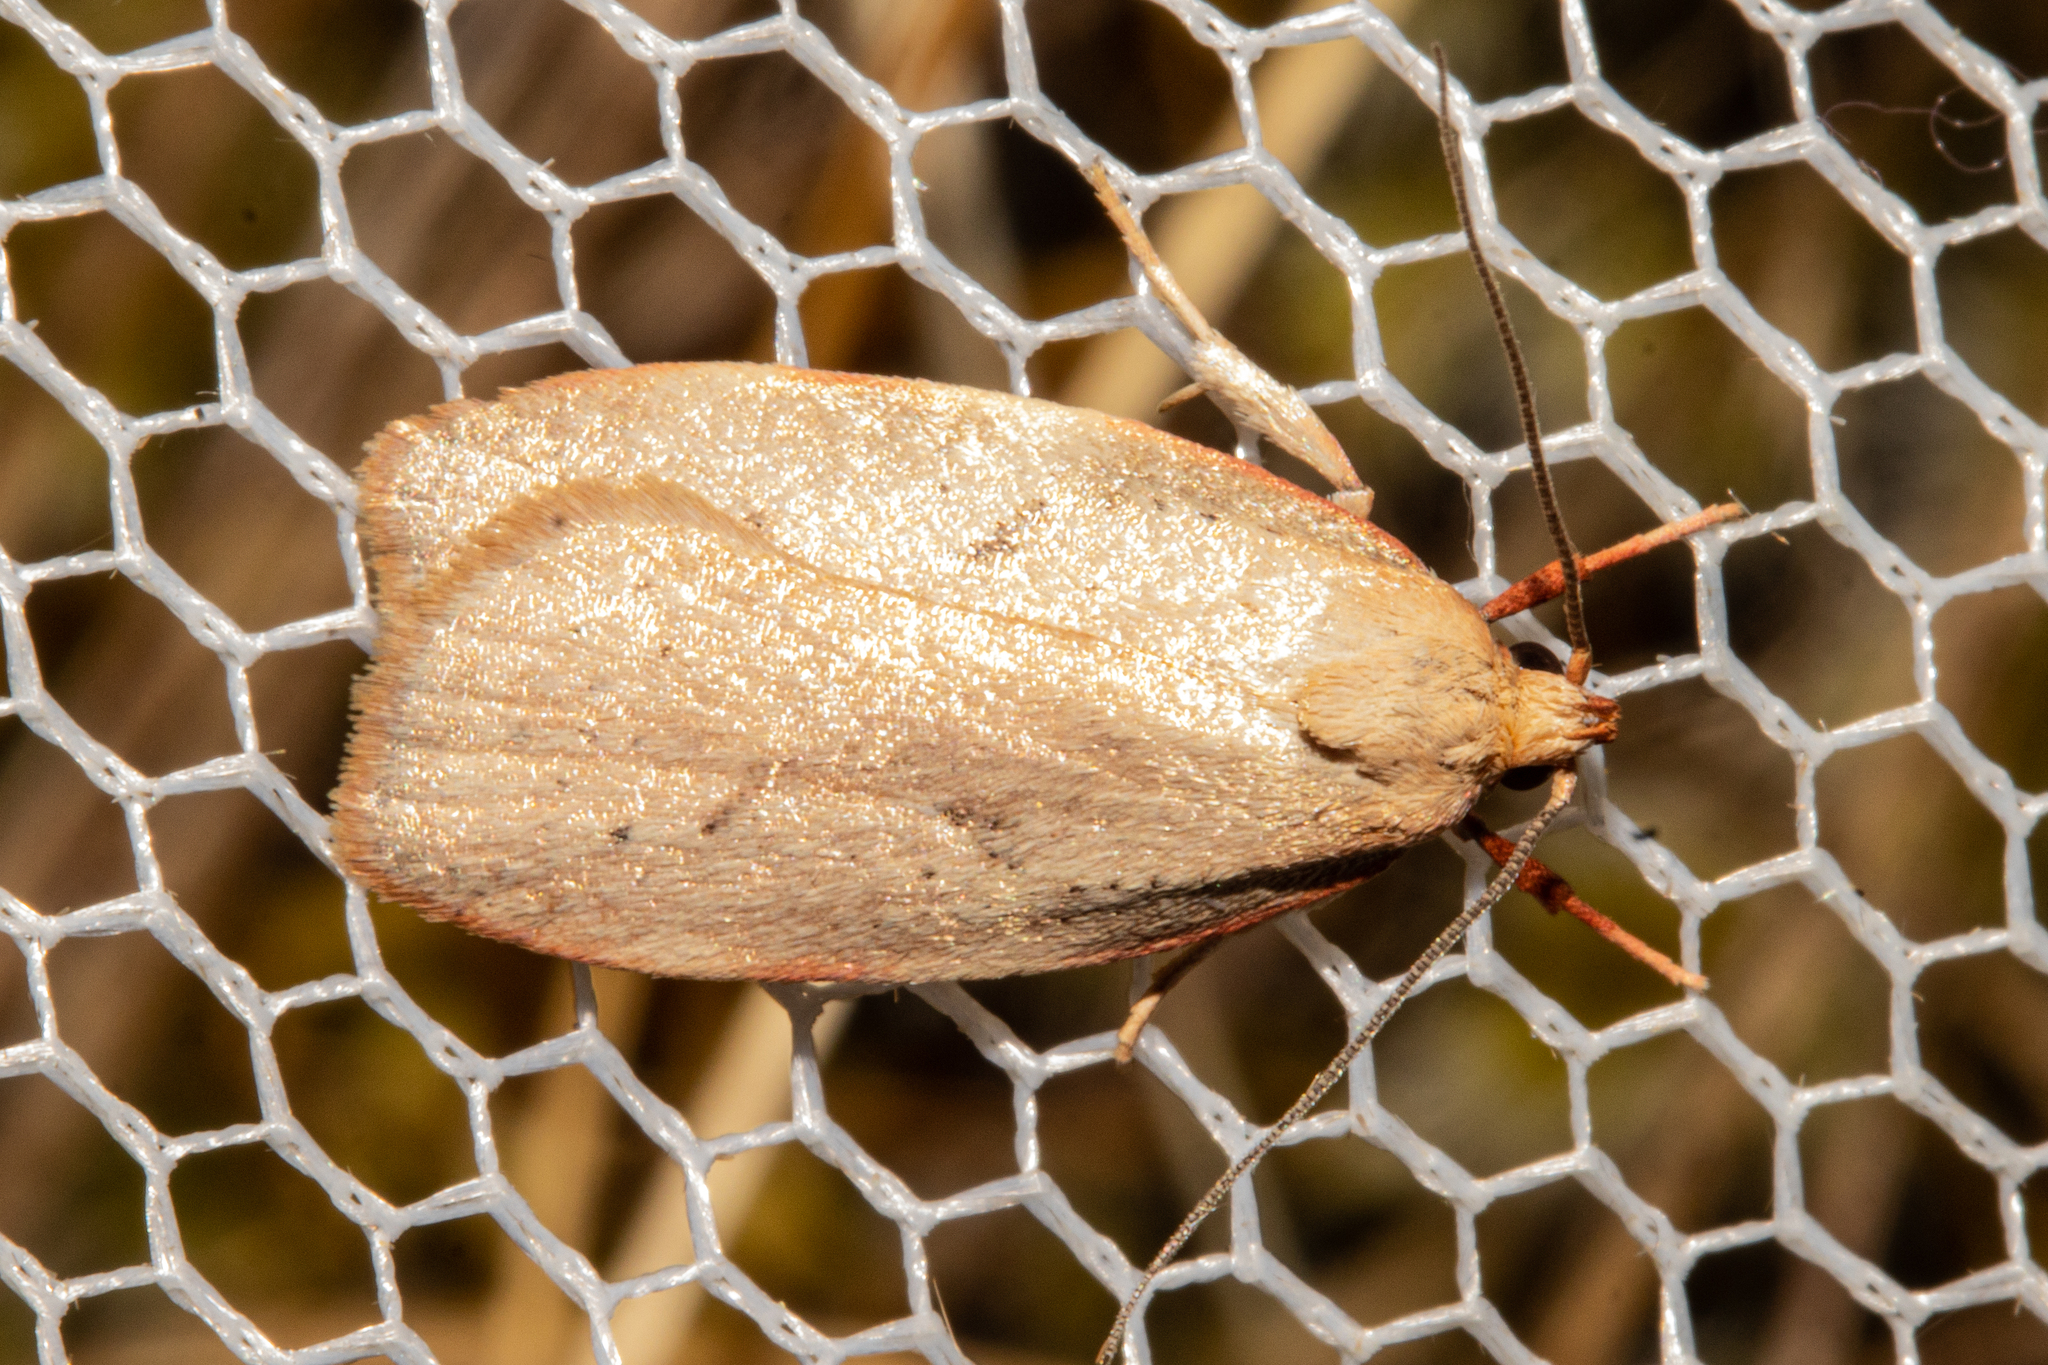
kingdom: Animalia
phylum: Arthropoda
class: Insecta
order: Lepidoptera
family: Oecophoridae
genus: Proteodes
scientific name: Proteodes carnifex
